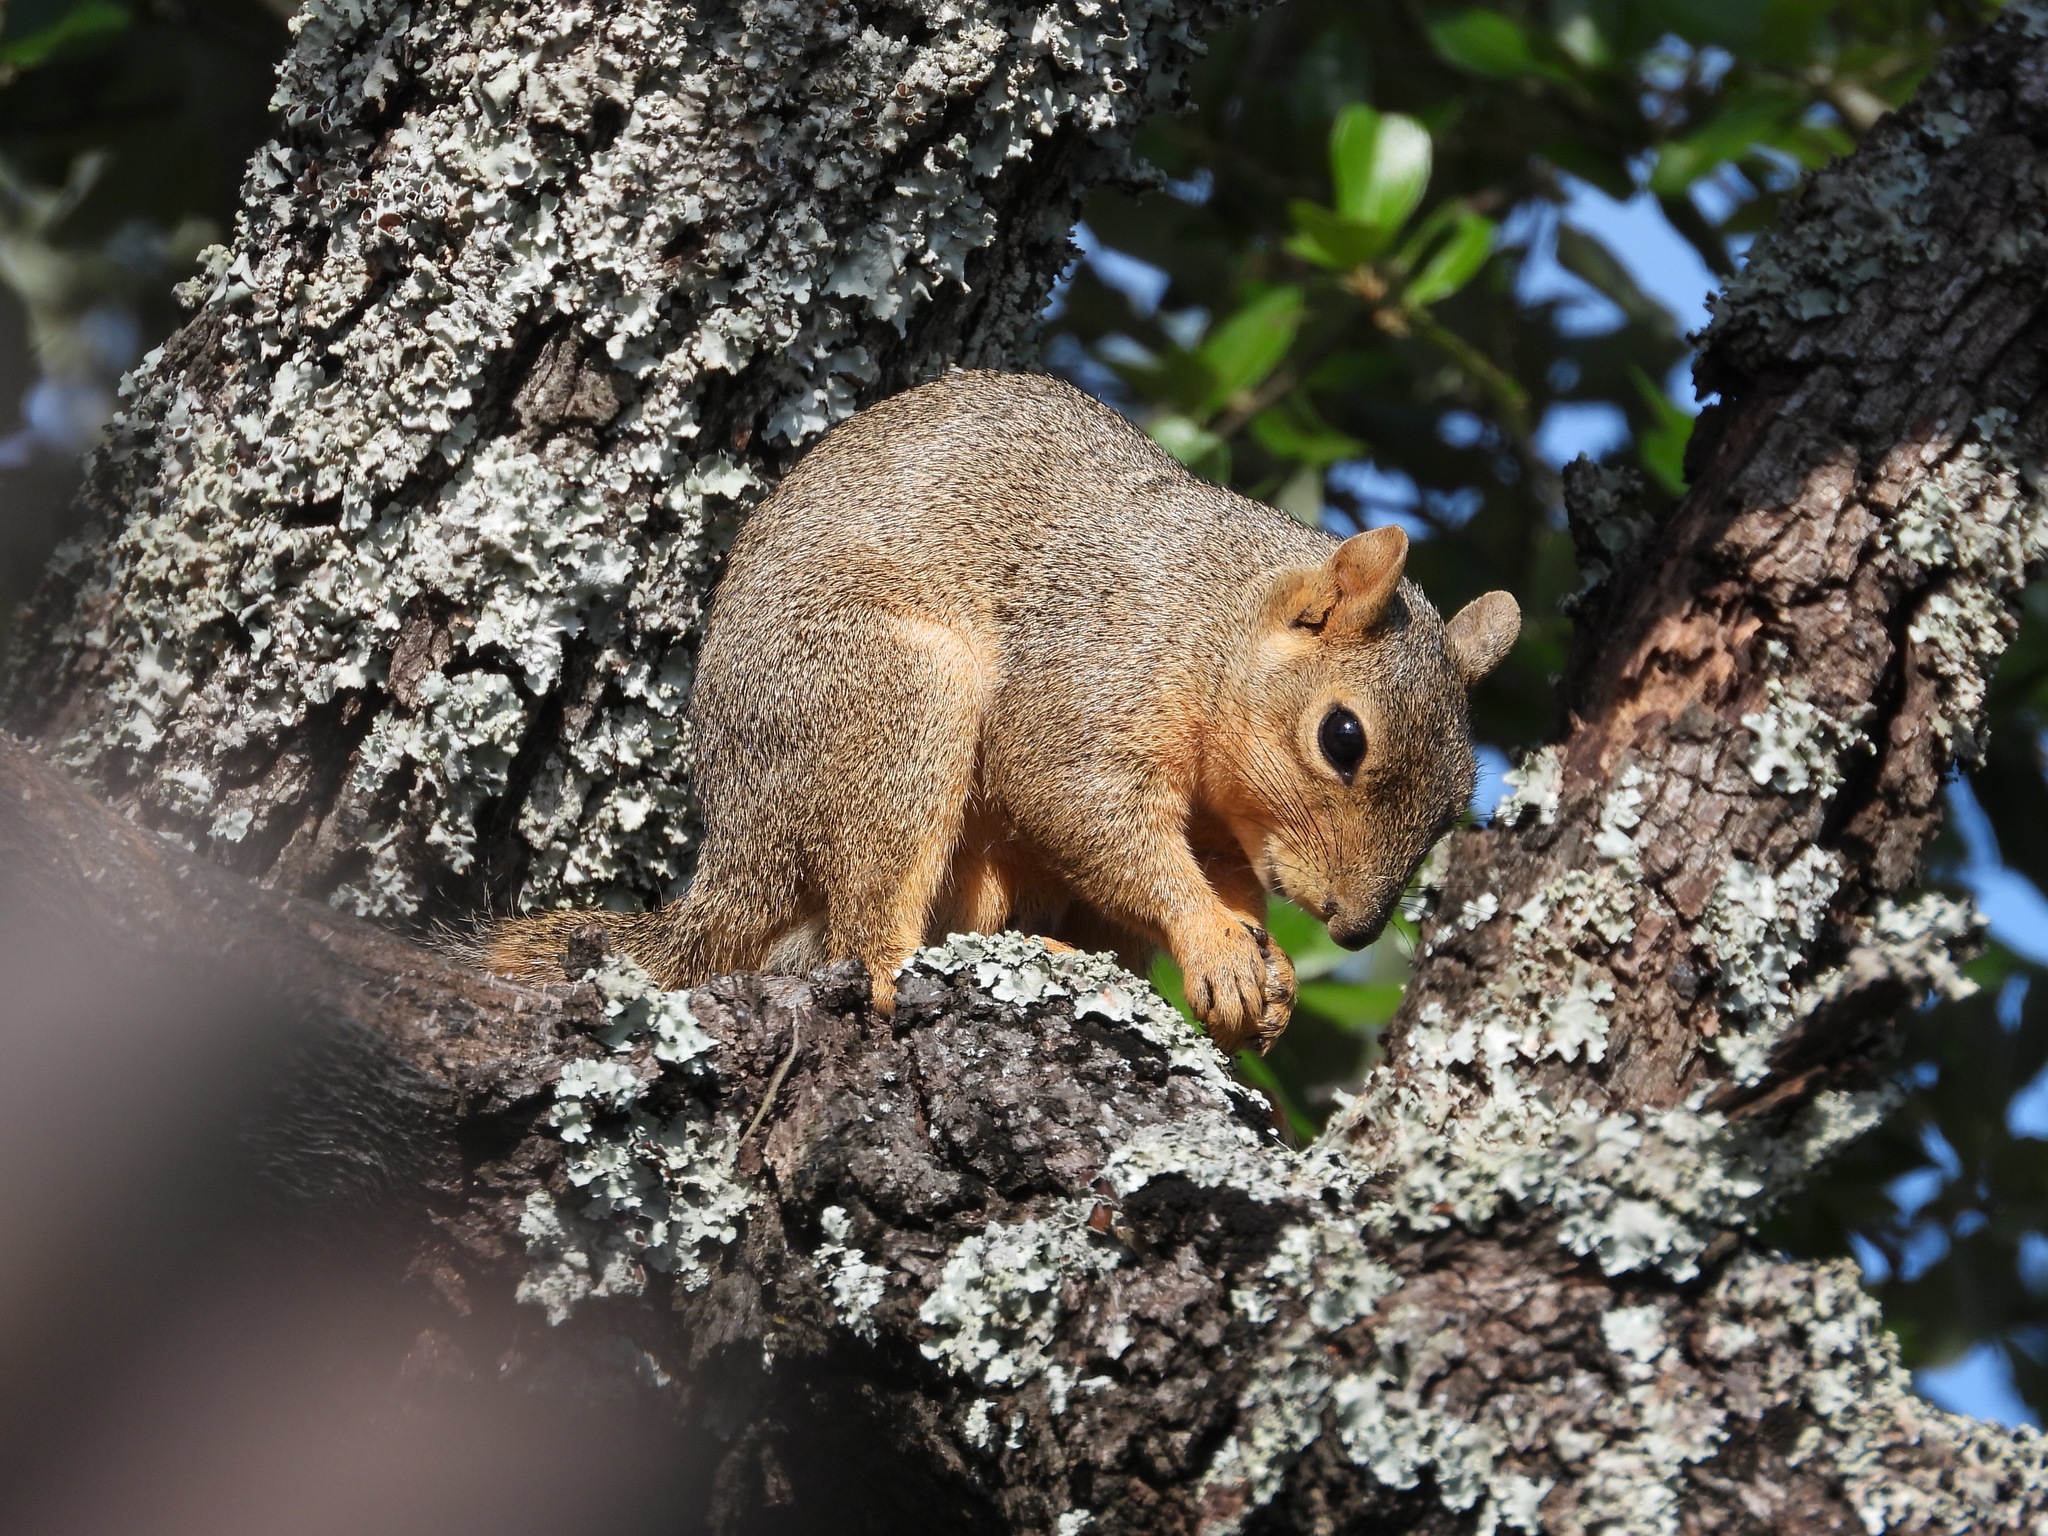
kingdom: Animalia
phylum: Chordata
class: Mammalia
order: Rodentia
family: Sciuridae
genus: Sciurus
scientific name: Sciurus niger
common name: Fox squirrel
